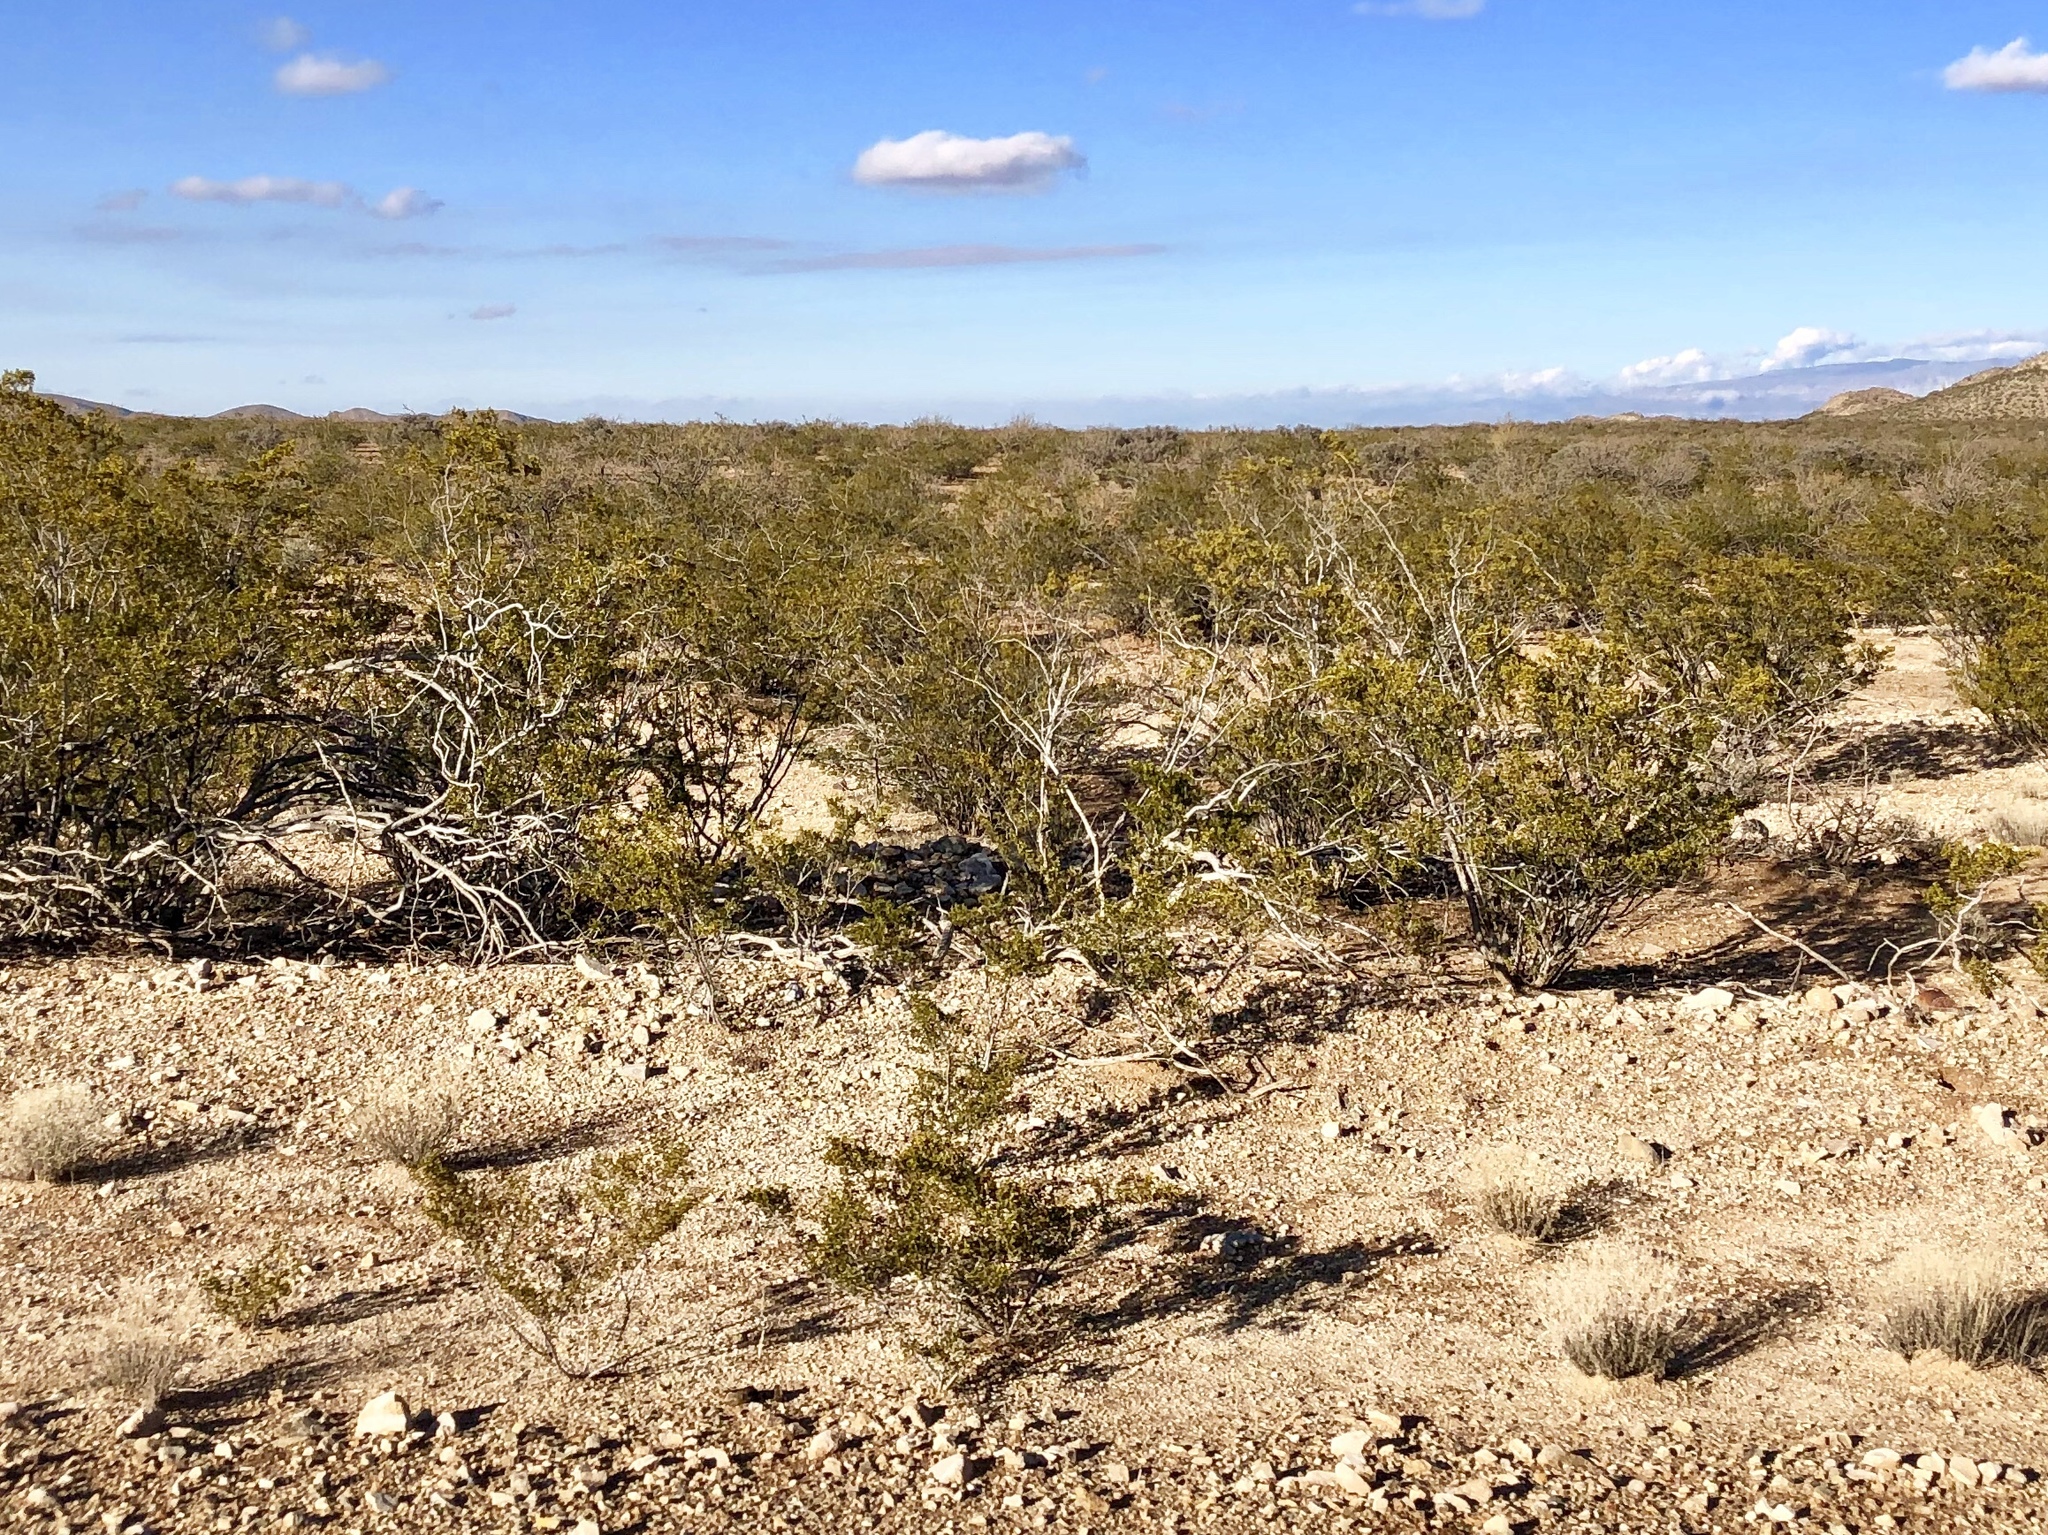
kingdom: Plantae
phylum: Tracheophyta
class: Magnoliopsida
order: Zygophyllales
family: Zygophyllaceae
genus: Larrea
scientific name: Larrea tridentata
